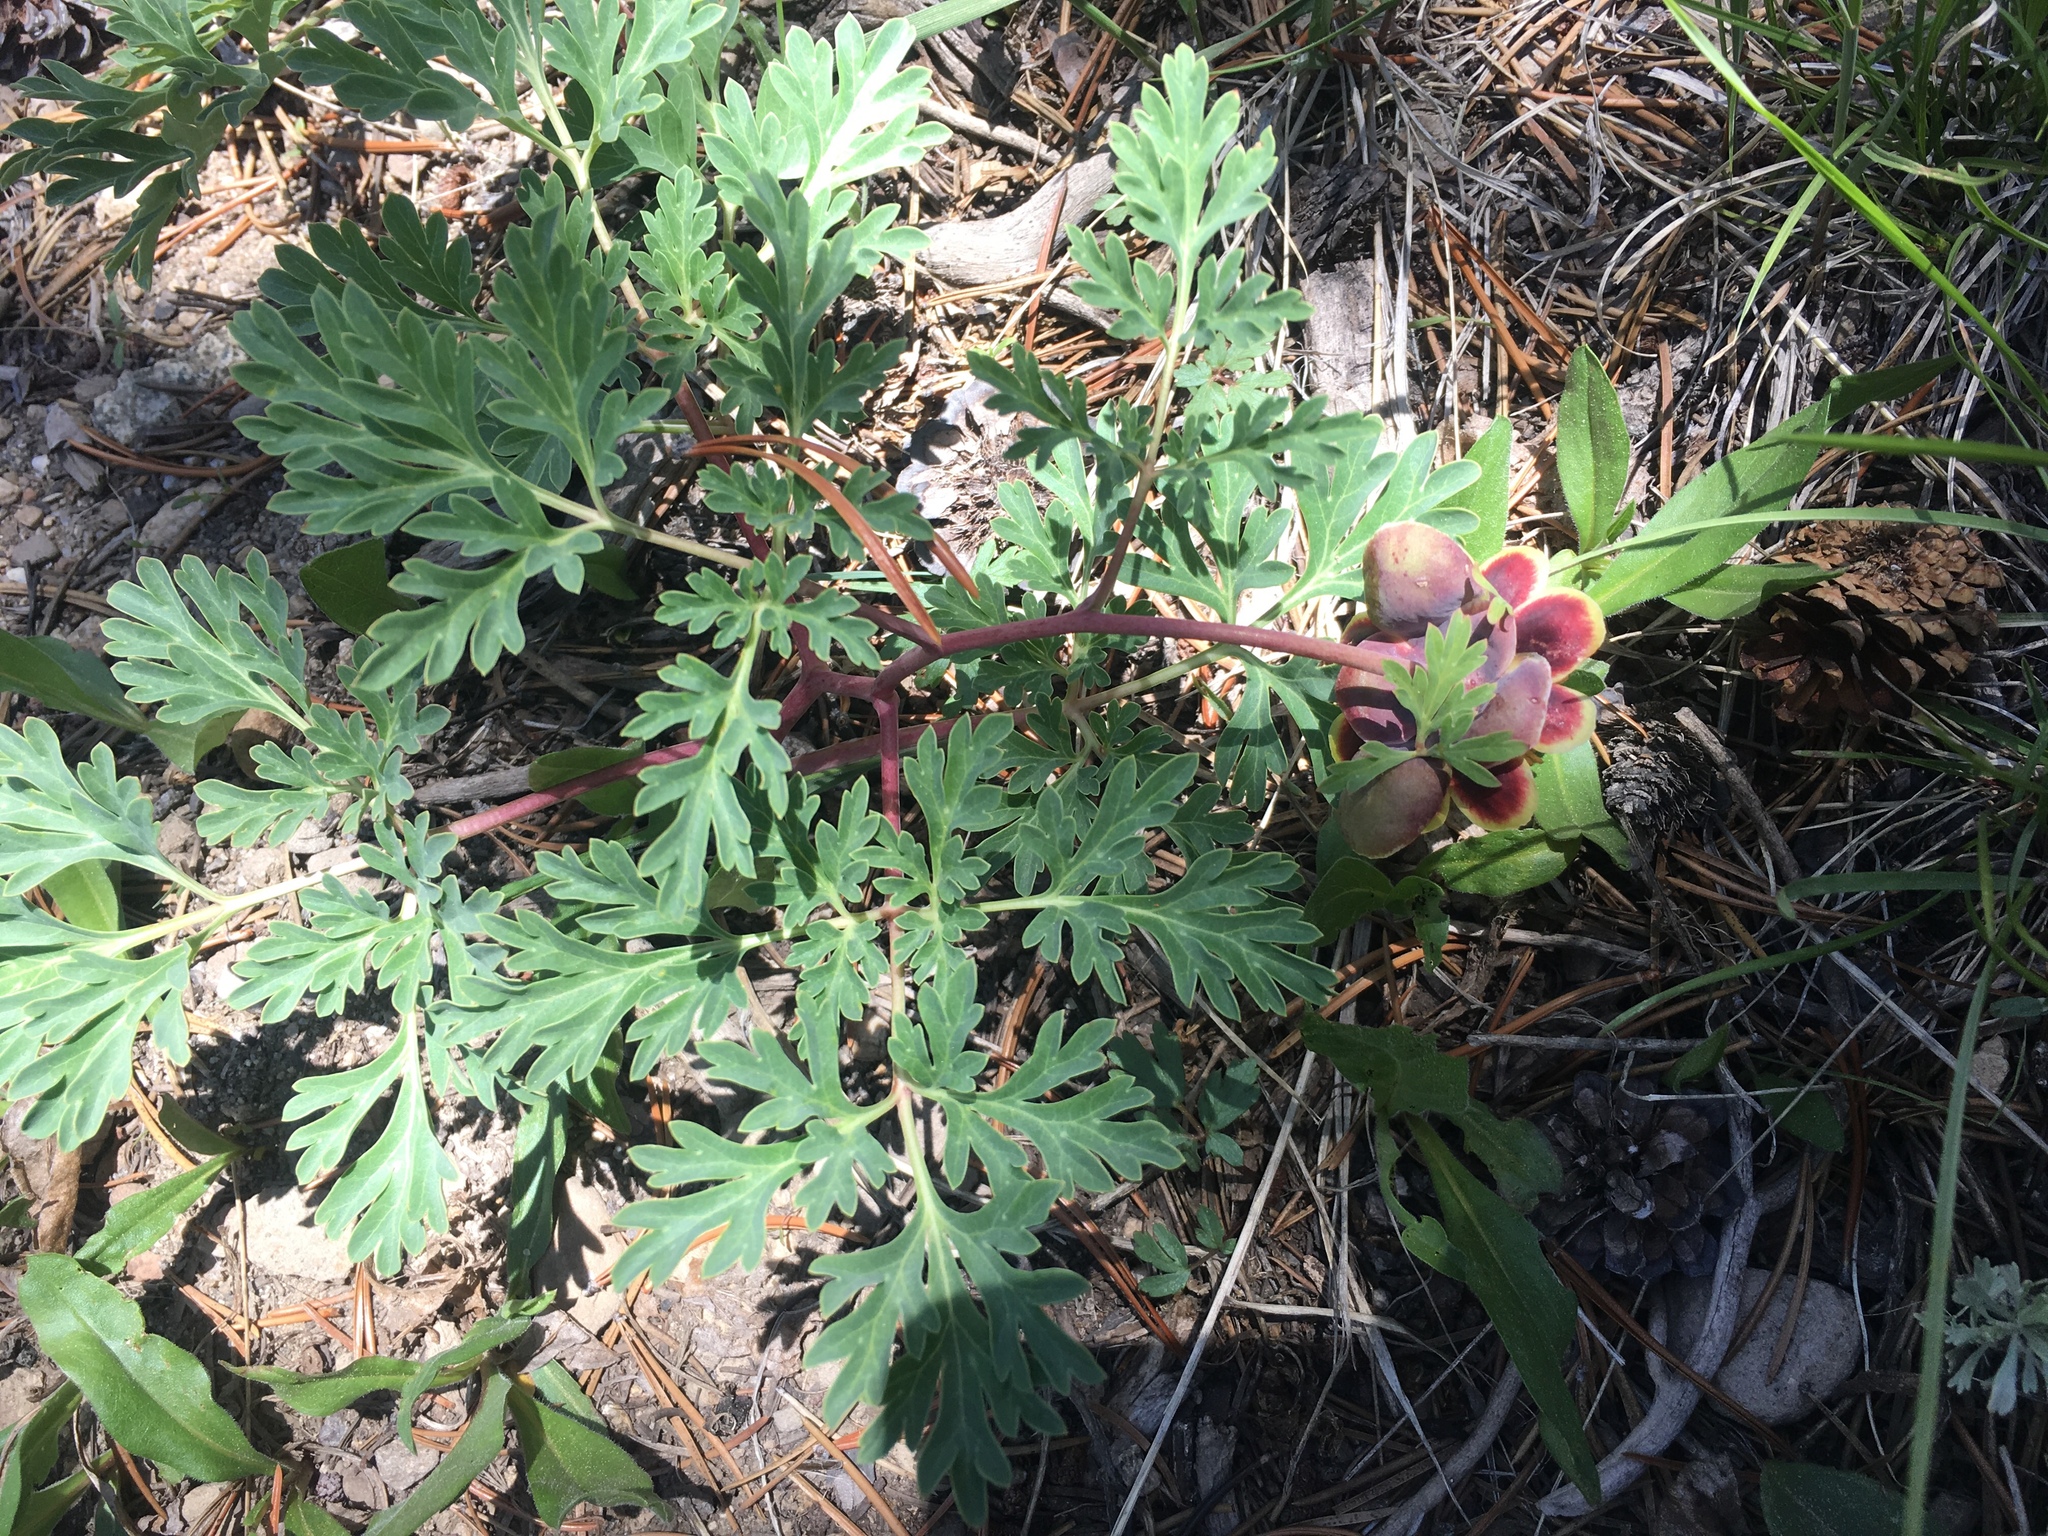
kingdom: Plantae
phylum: Tracheophyta
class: Magnoliopsida
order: Saxifragales
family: Paeoniaceae
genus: Paeonia
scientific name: Paeonia brownii
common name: Brown's peony
